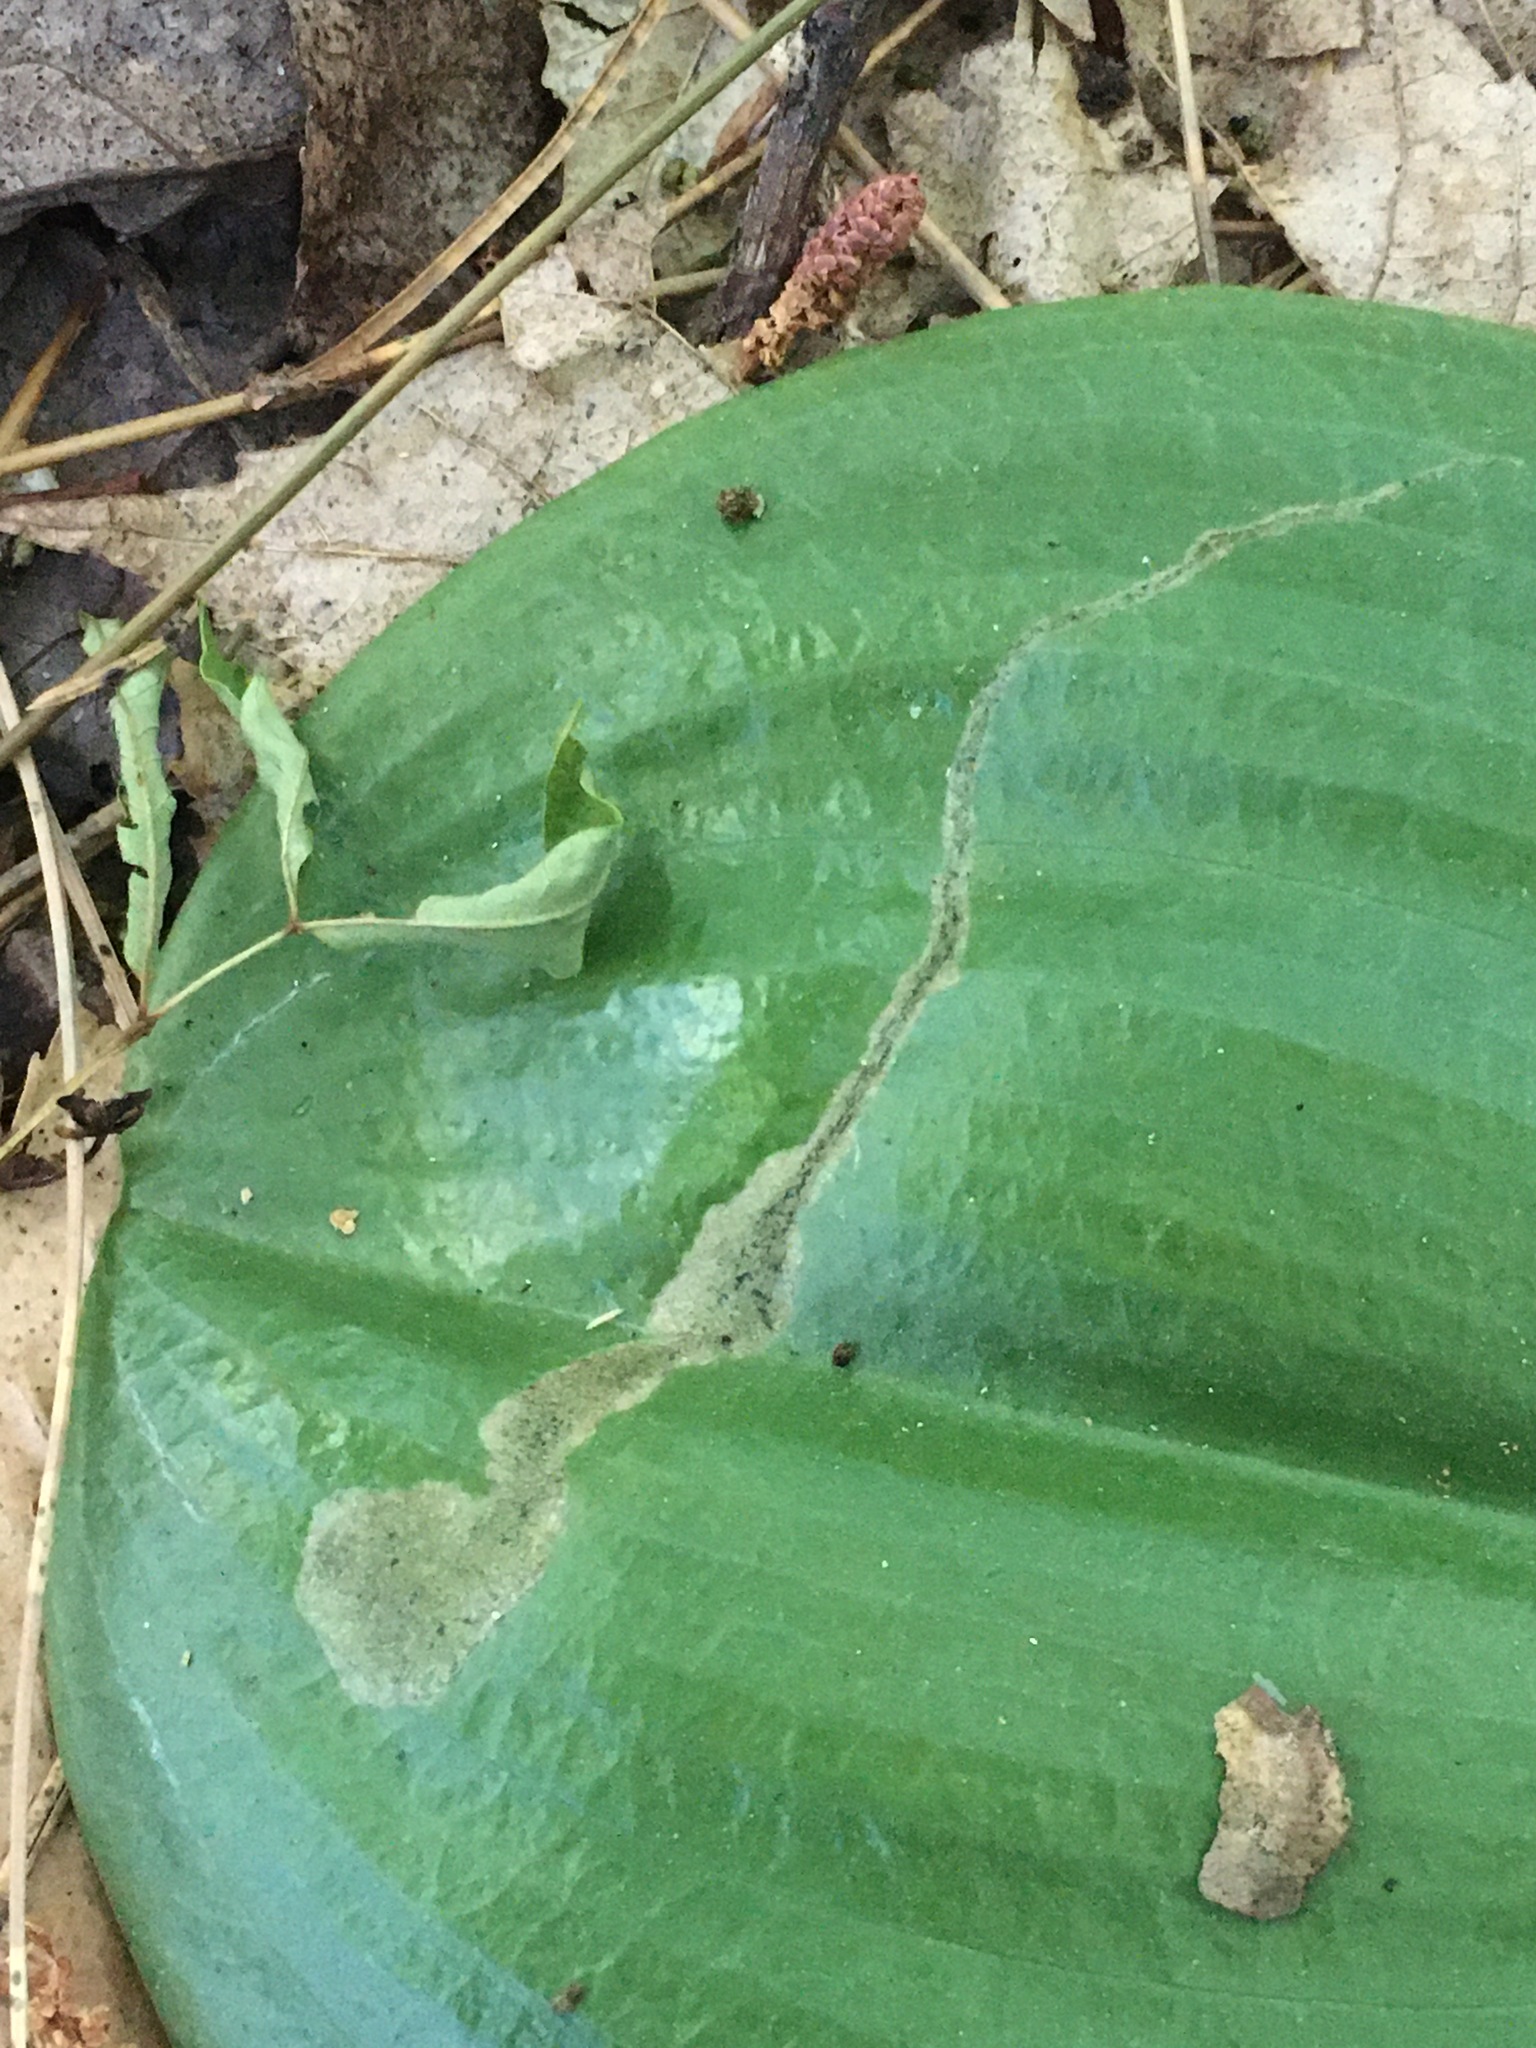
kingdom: Animalia
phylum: Arthropoda
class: Insecta
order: Diptera
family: Scathophagidae
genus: Leptopa
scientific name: Leptopa
